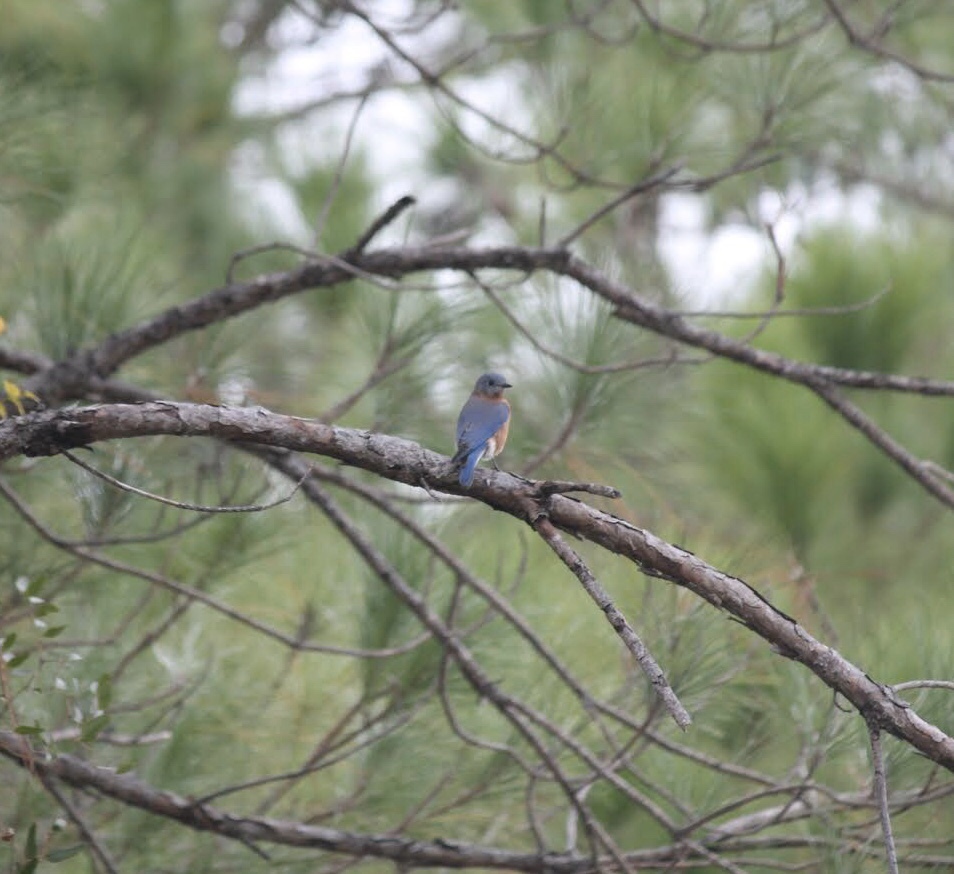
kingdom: Animalia
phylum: Chordata
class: Aves
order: Passeriformes
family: Turdidae
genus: Sialia
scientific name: Sialia sialis
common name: Eastern bluebird
